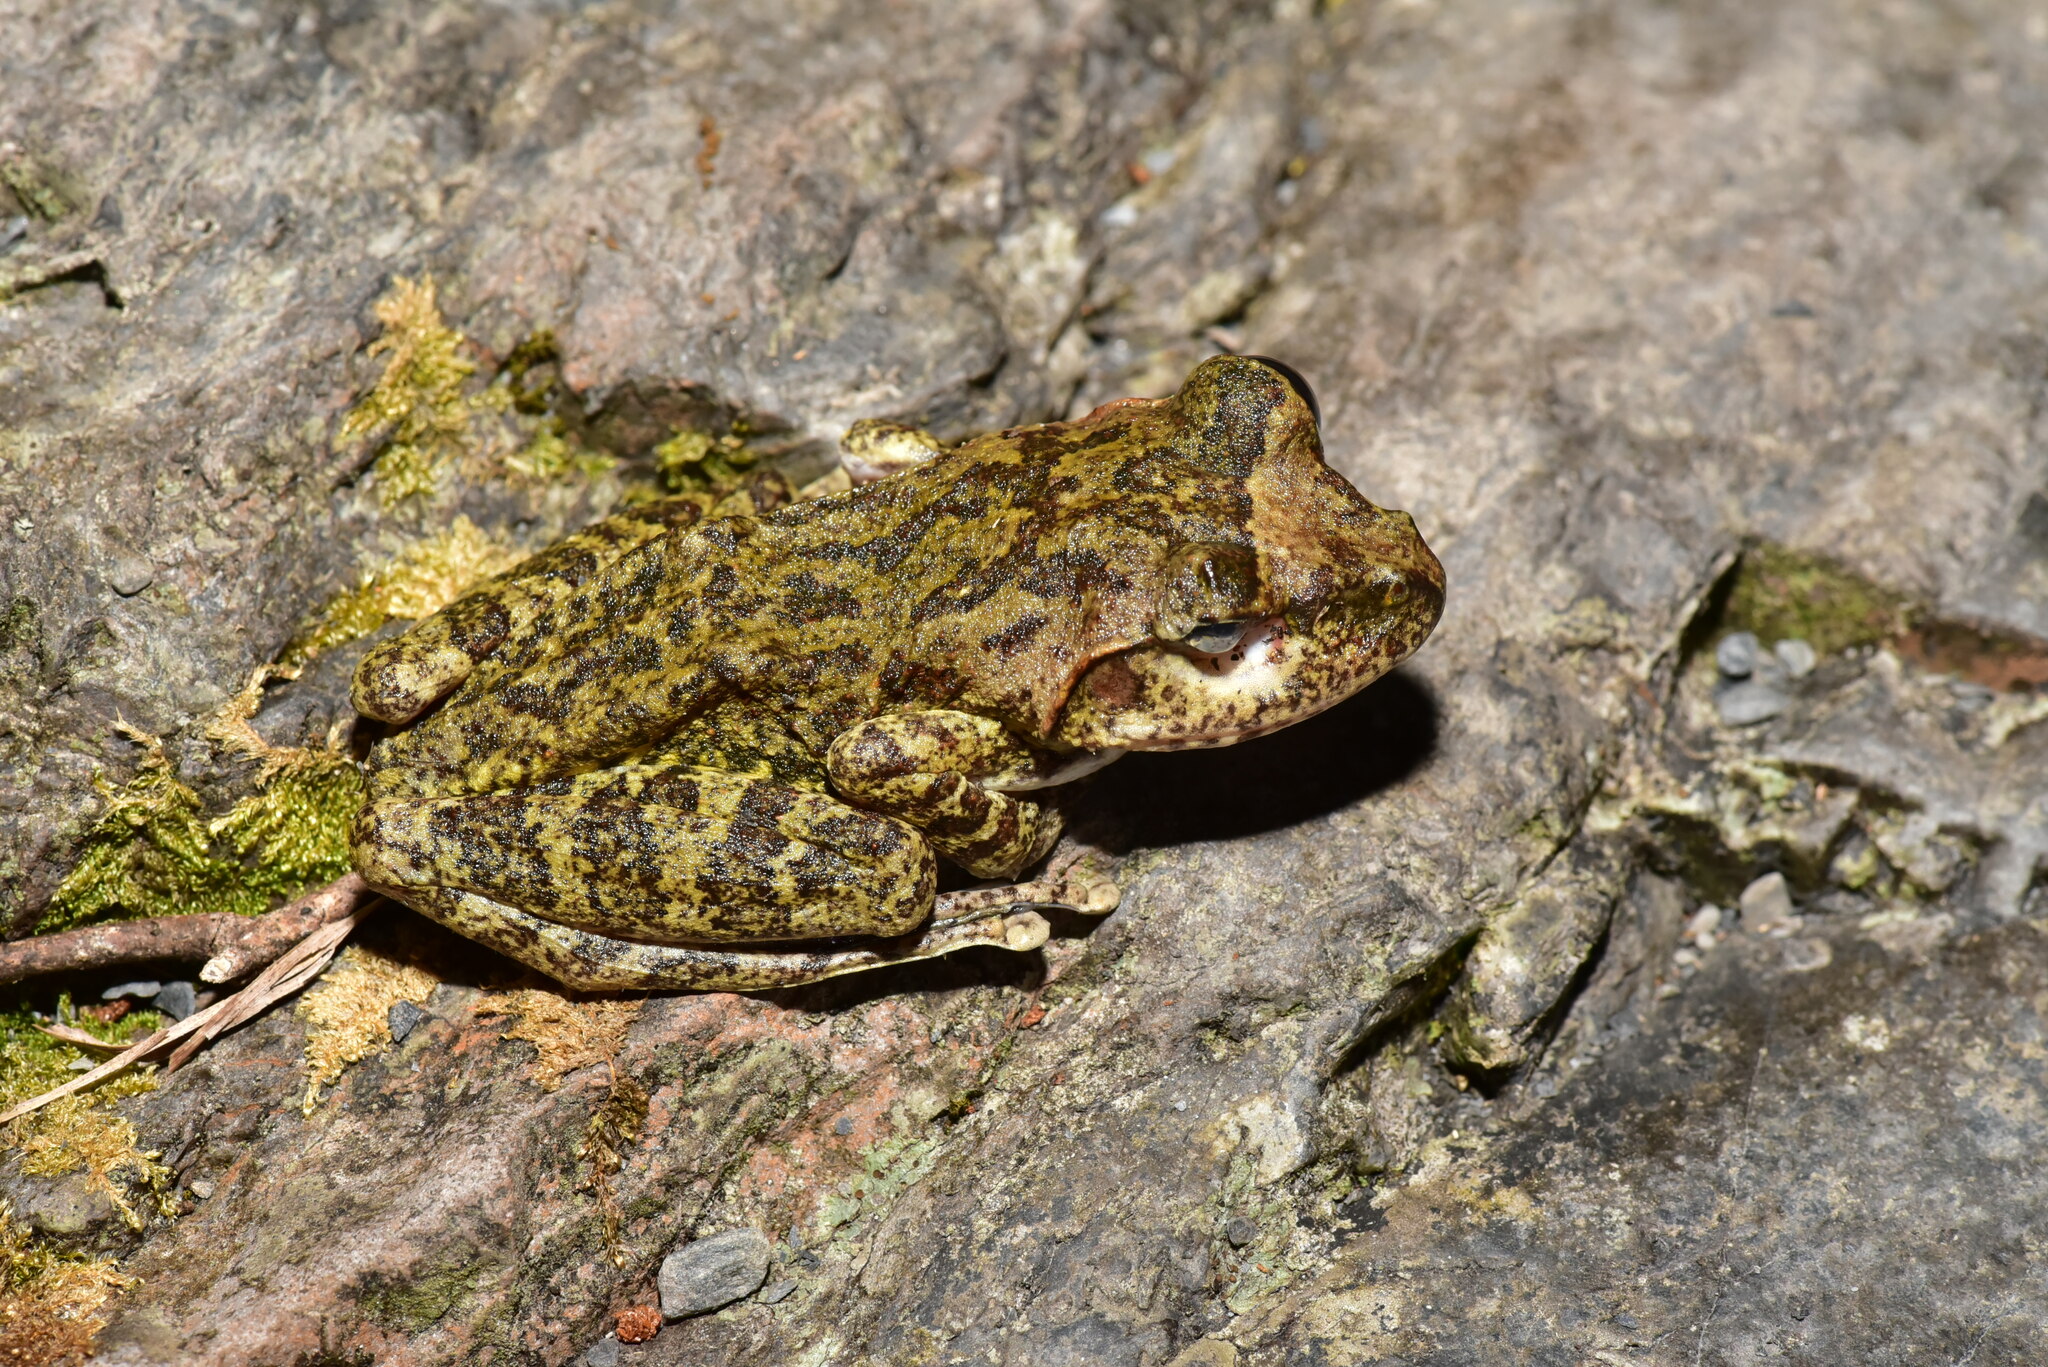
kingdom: Animalia
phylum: Chordata
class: Amphibia
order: Anura
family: Rhacophoridae
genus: Buergeria
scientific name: Buergeria robusta
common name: Brown treefrog
